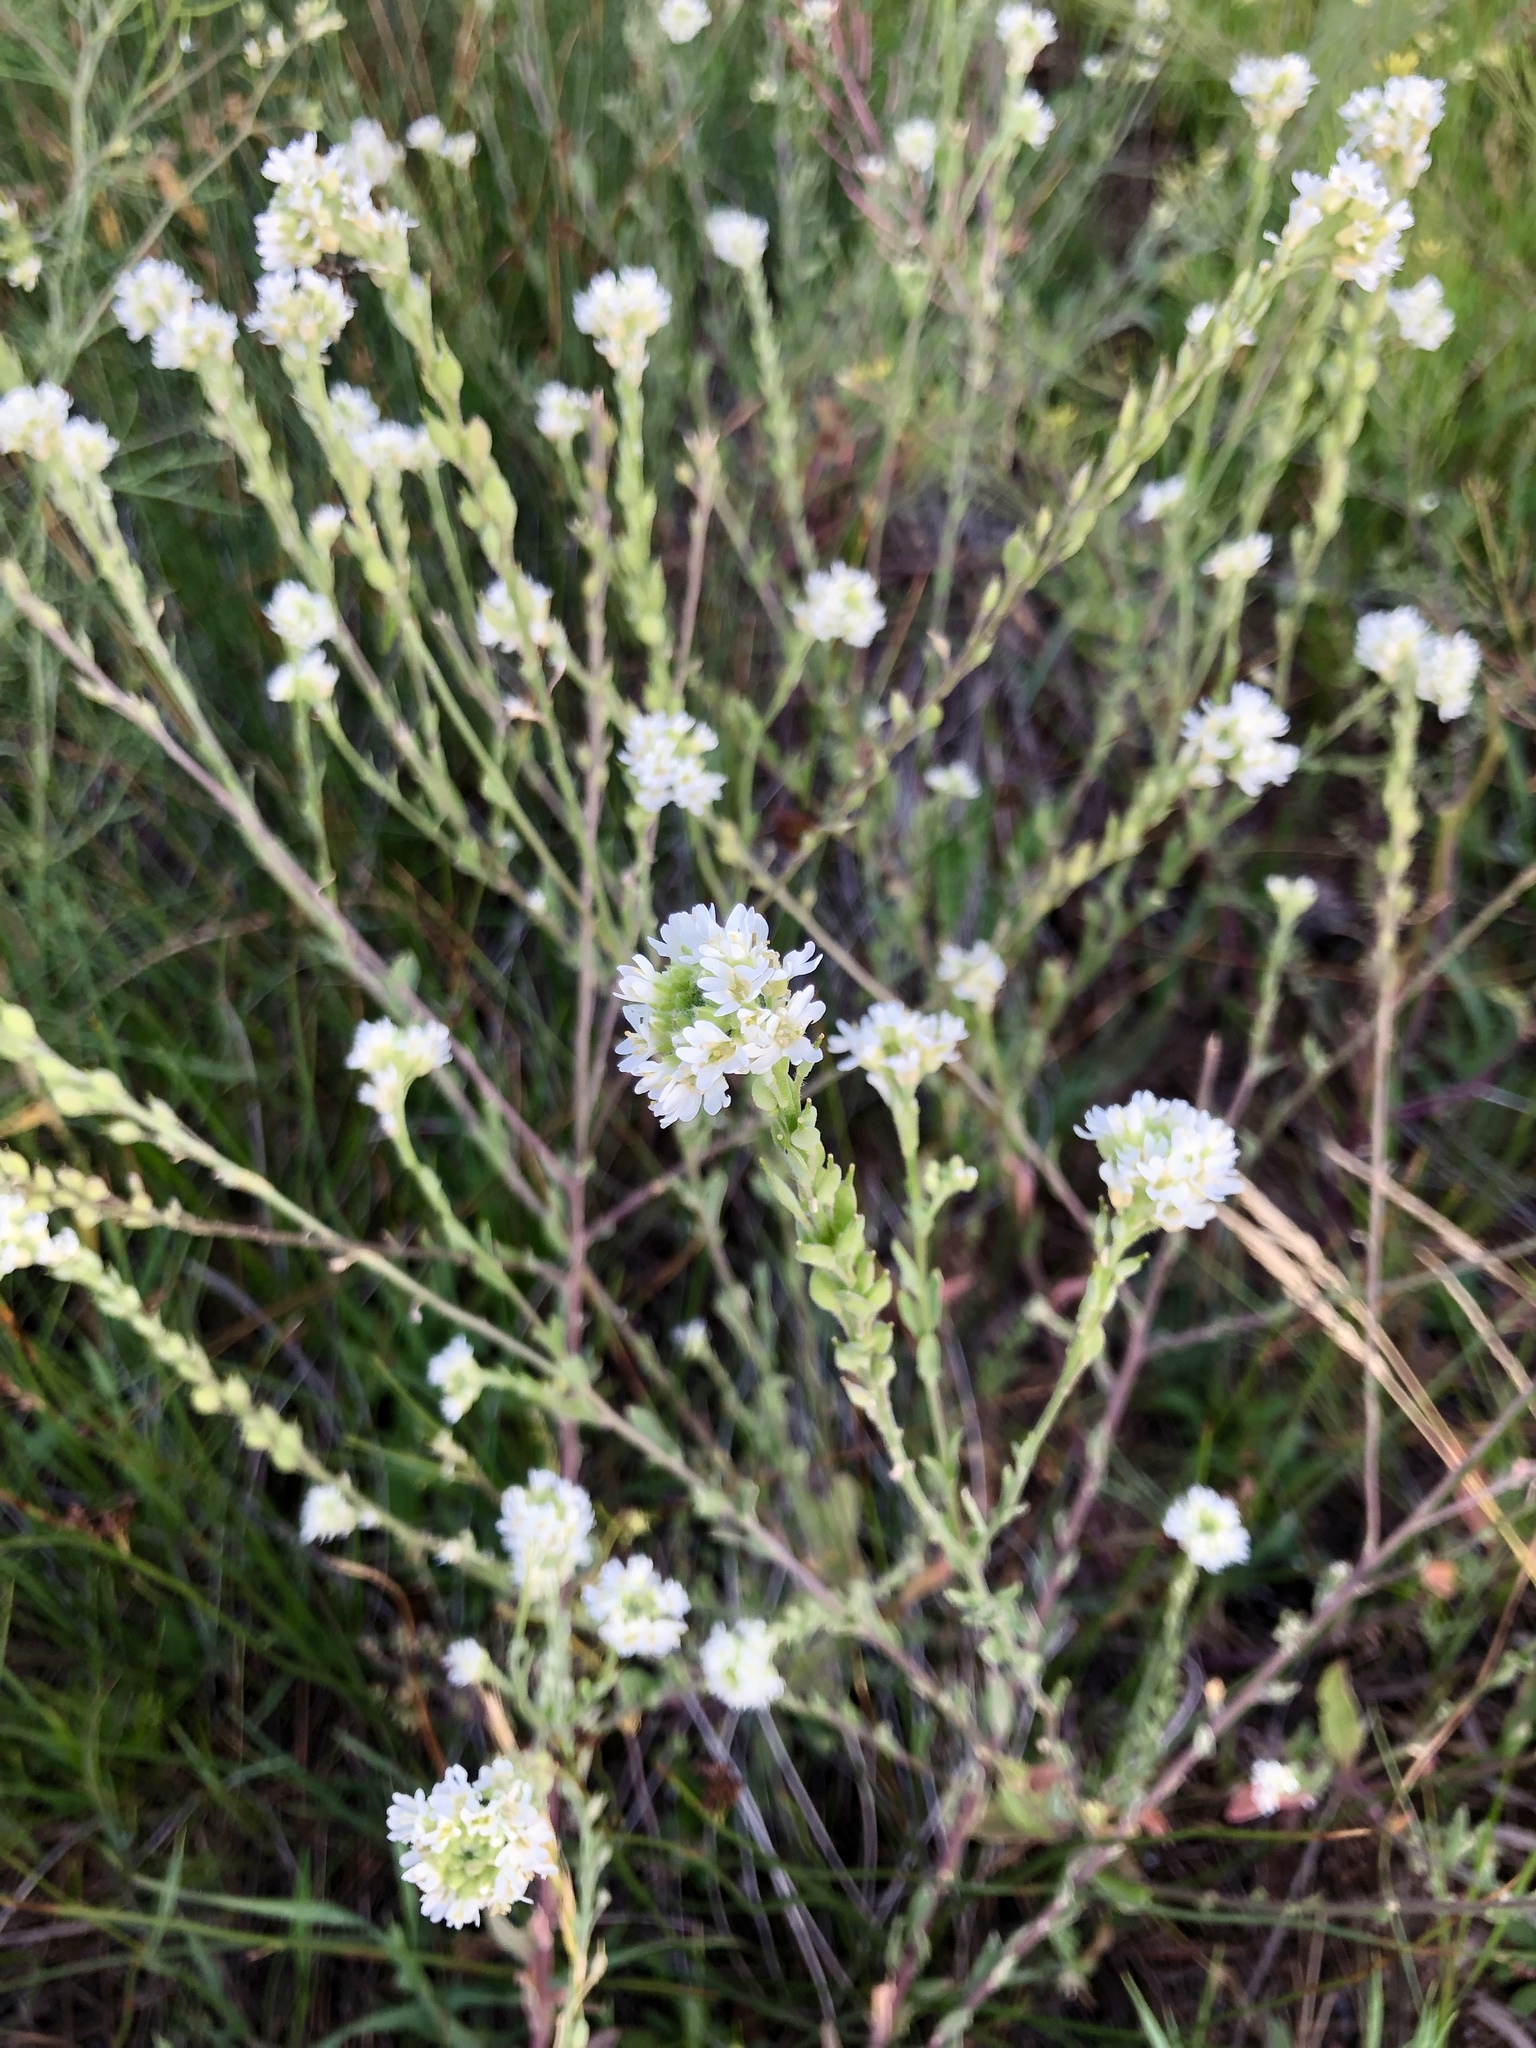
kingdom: Plantae
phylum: Tracheophyta
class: Magnoliopsida
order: Brassicales
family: Brassicaceae
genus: Berteroa
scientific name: Berteroa incana
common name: Hoary alison
